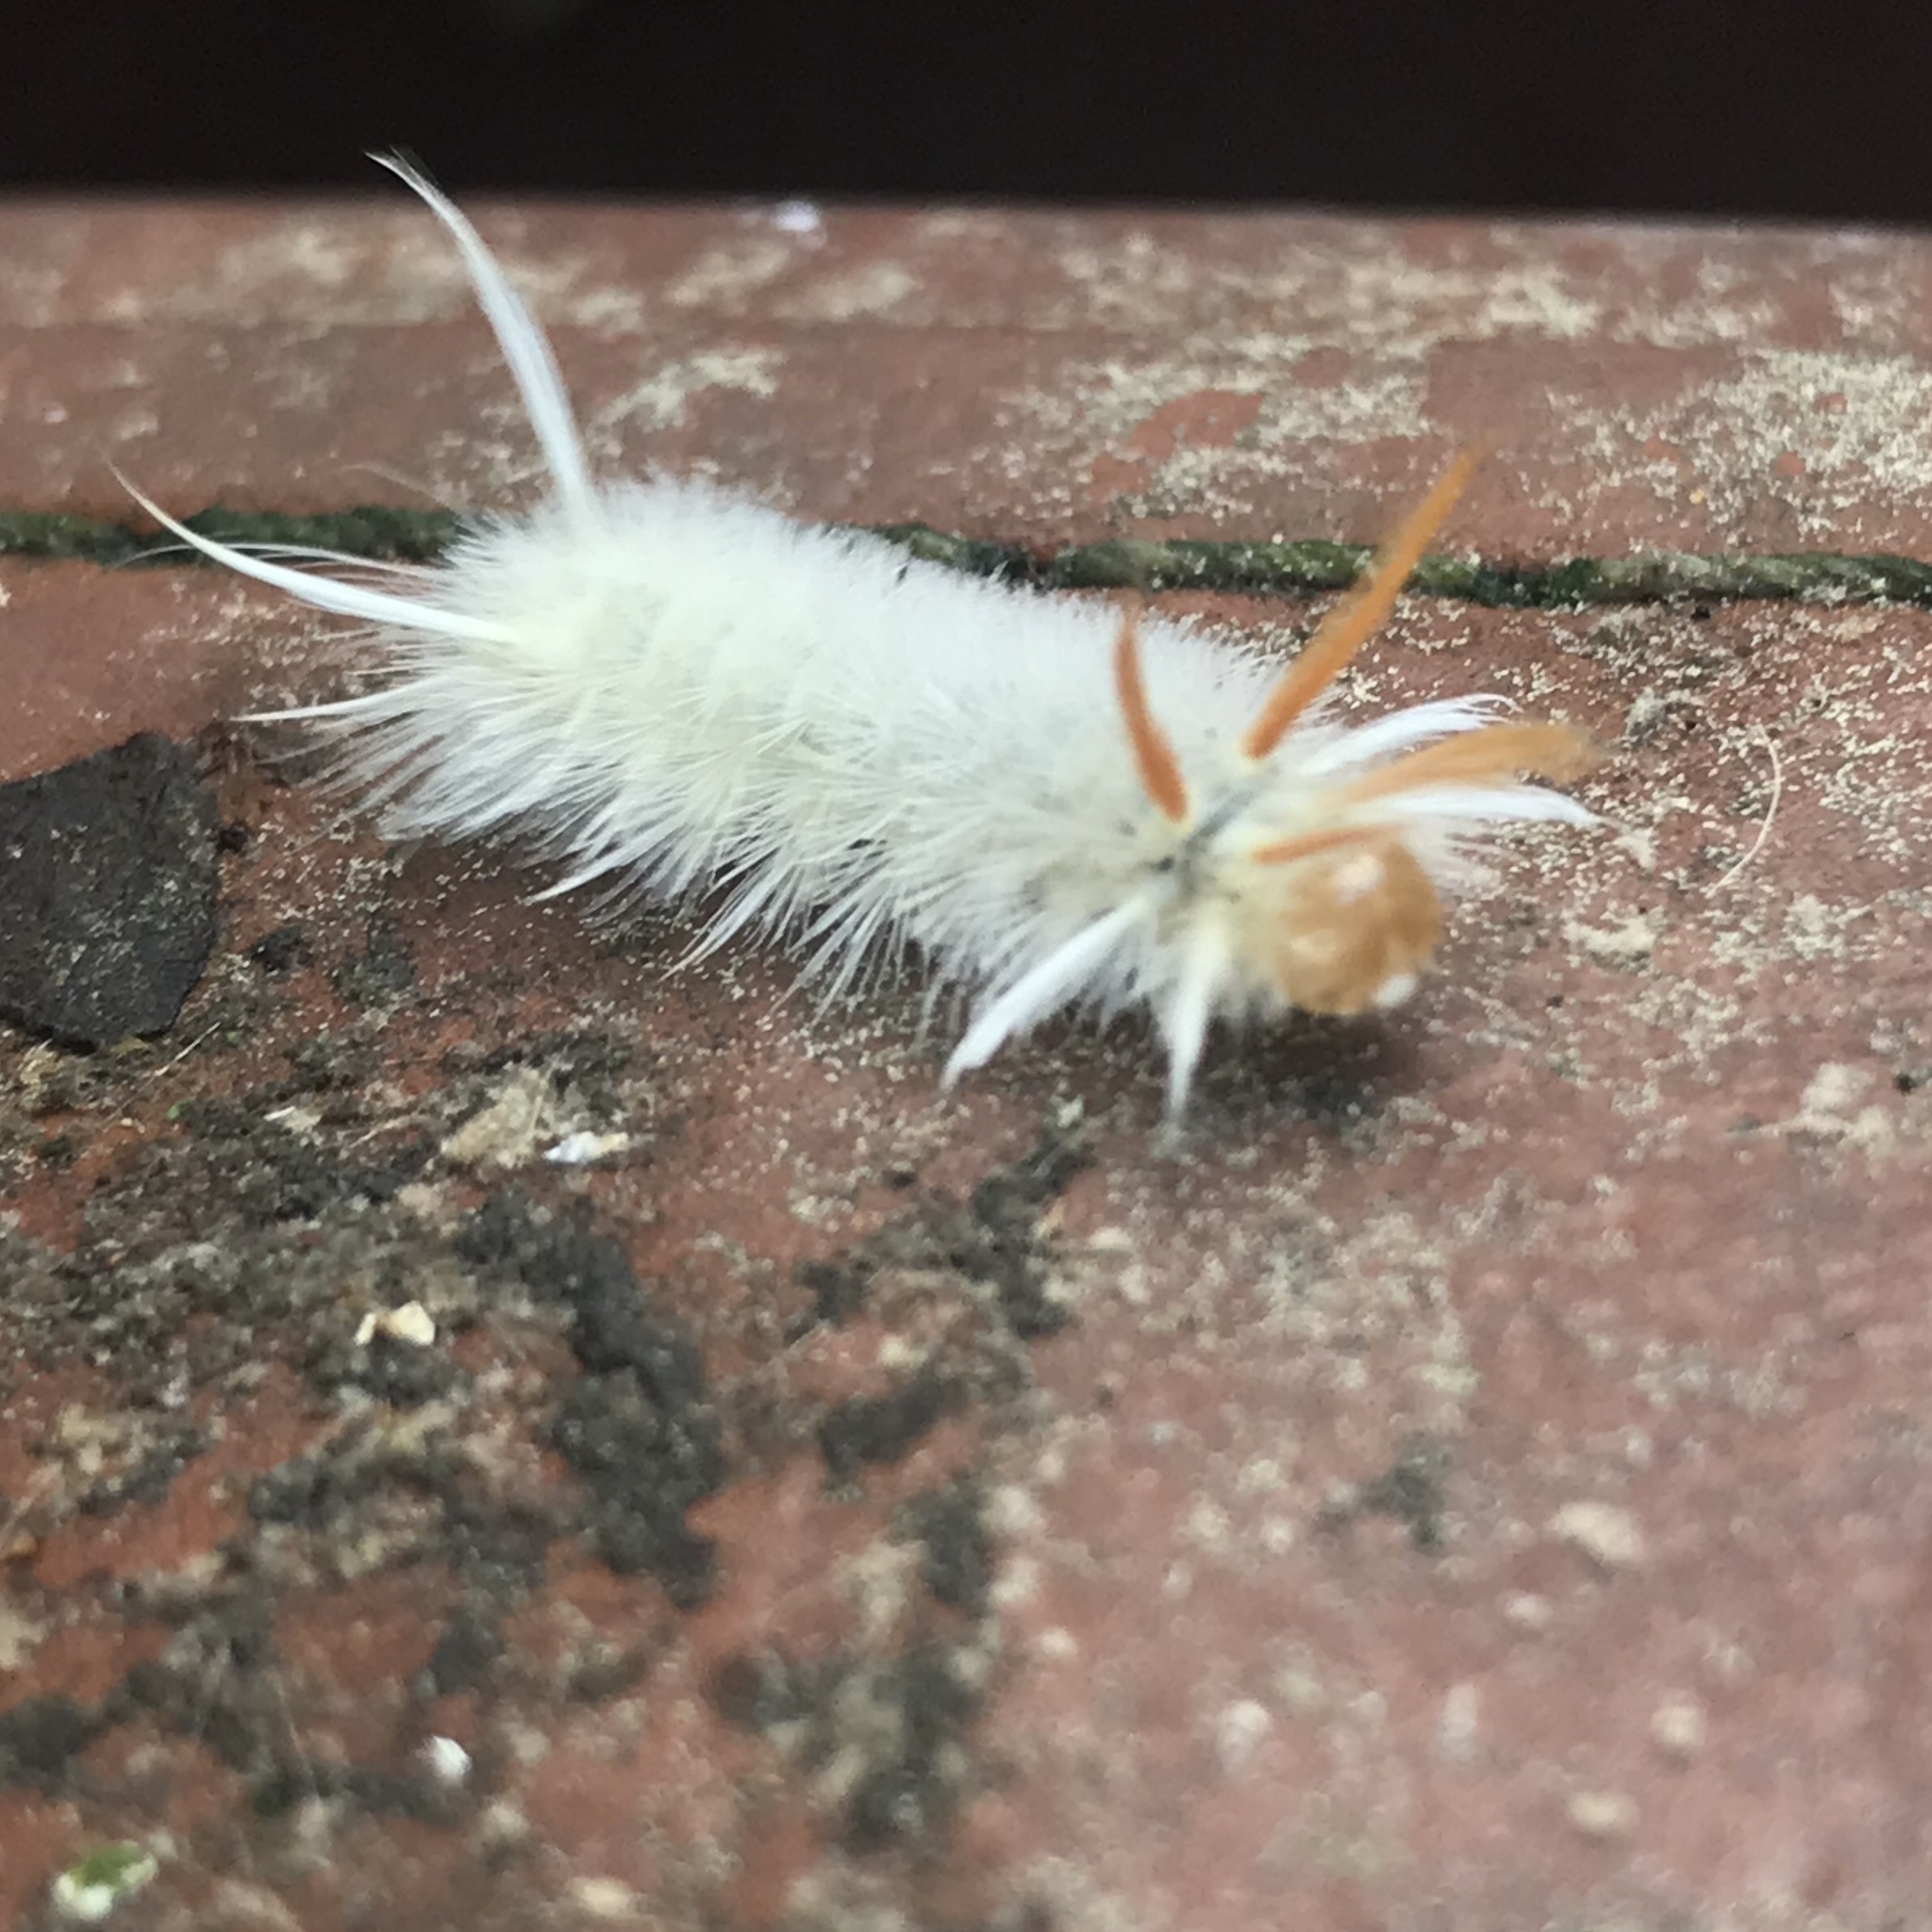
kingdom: Animalia
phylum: Arthropoda
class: Insecta
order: Lepidoptera
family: Erebidae
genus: Halysidota
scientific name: Halysidota harrisii
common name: Sycamore tussock moth
